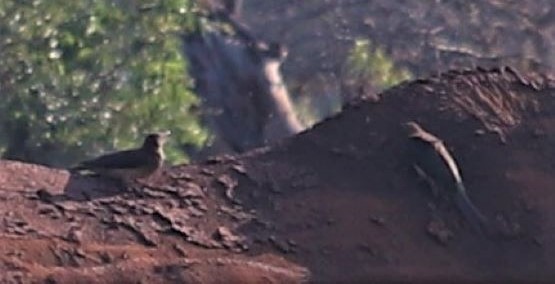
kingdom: Animalia
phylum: Chordata
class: Aves
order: Passeriformes
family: Buphagidae
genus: Buphagus
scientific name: Buphagus erythrorhynchus
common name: Red-billed oxpecker
